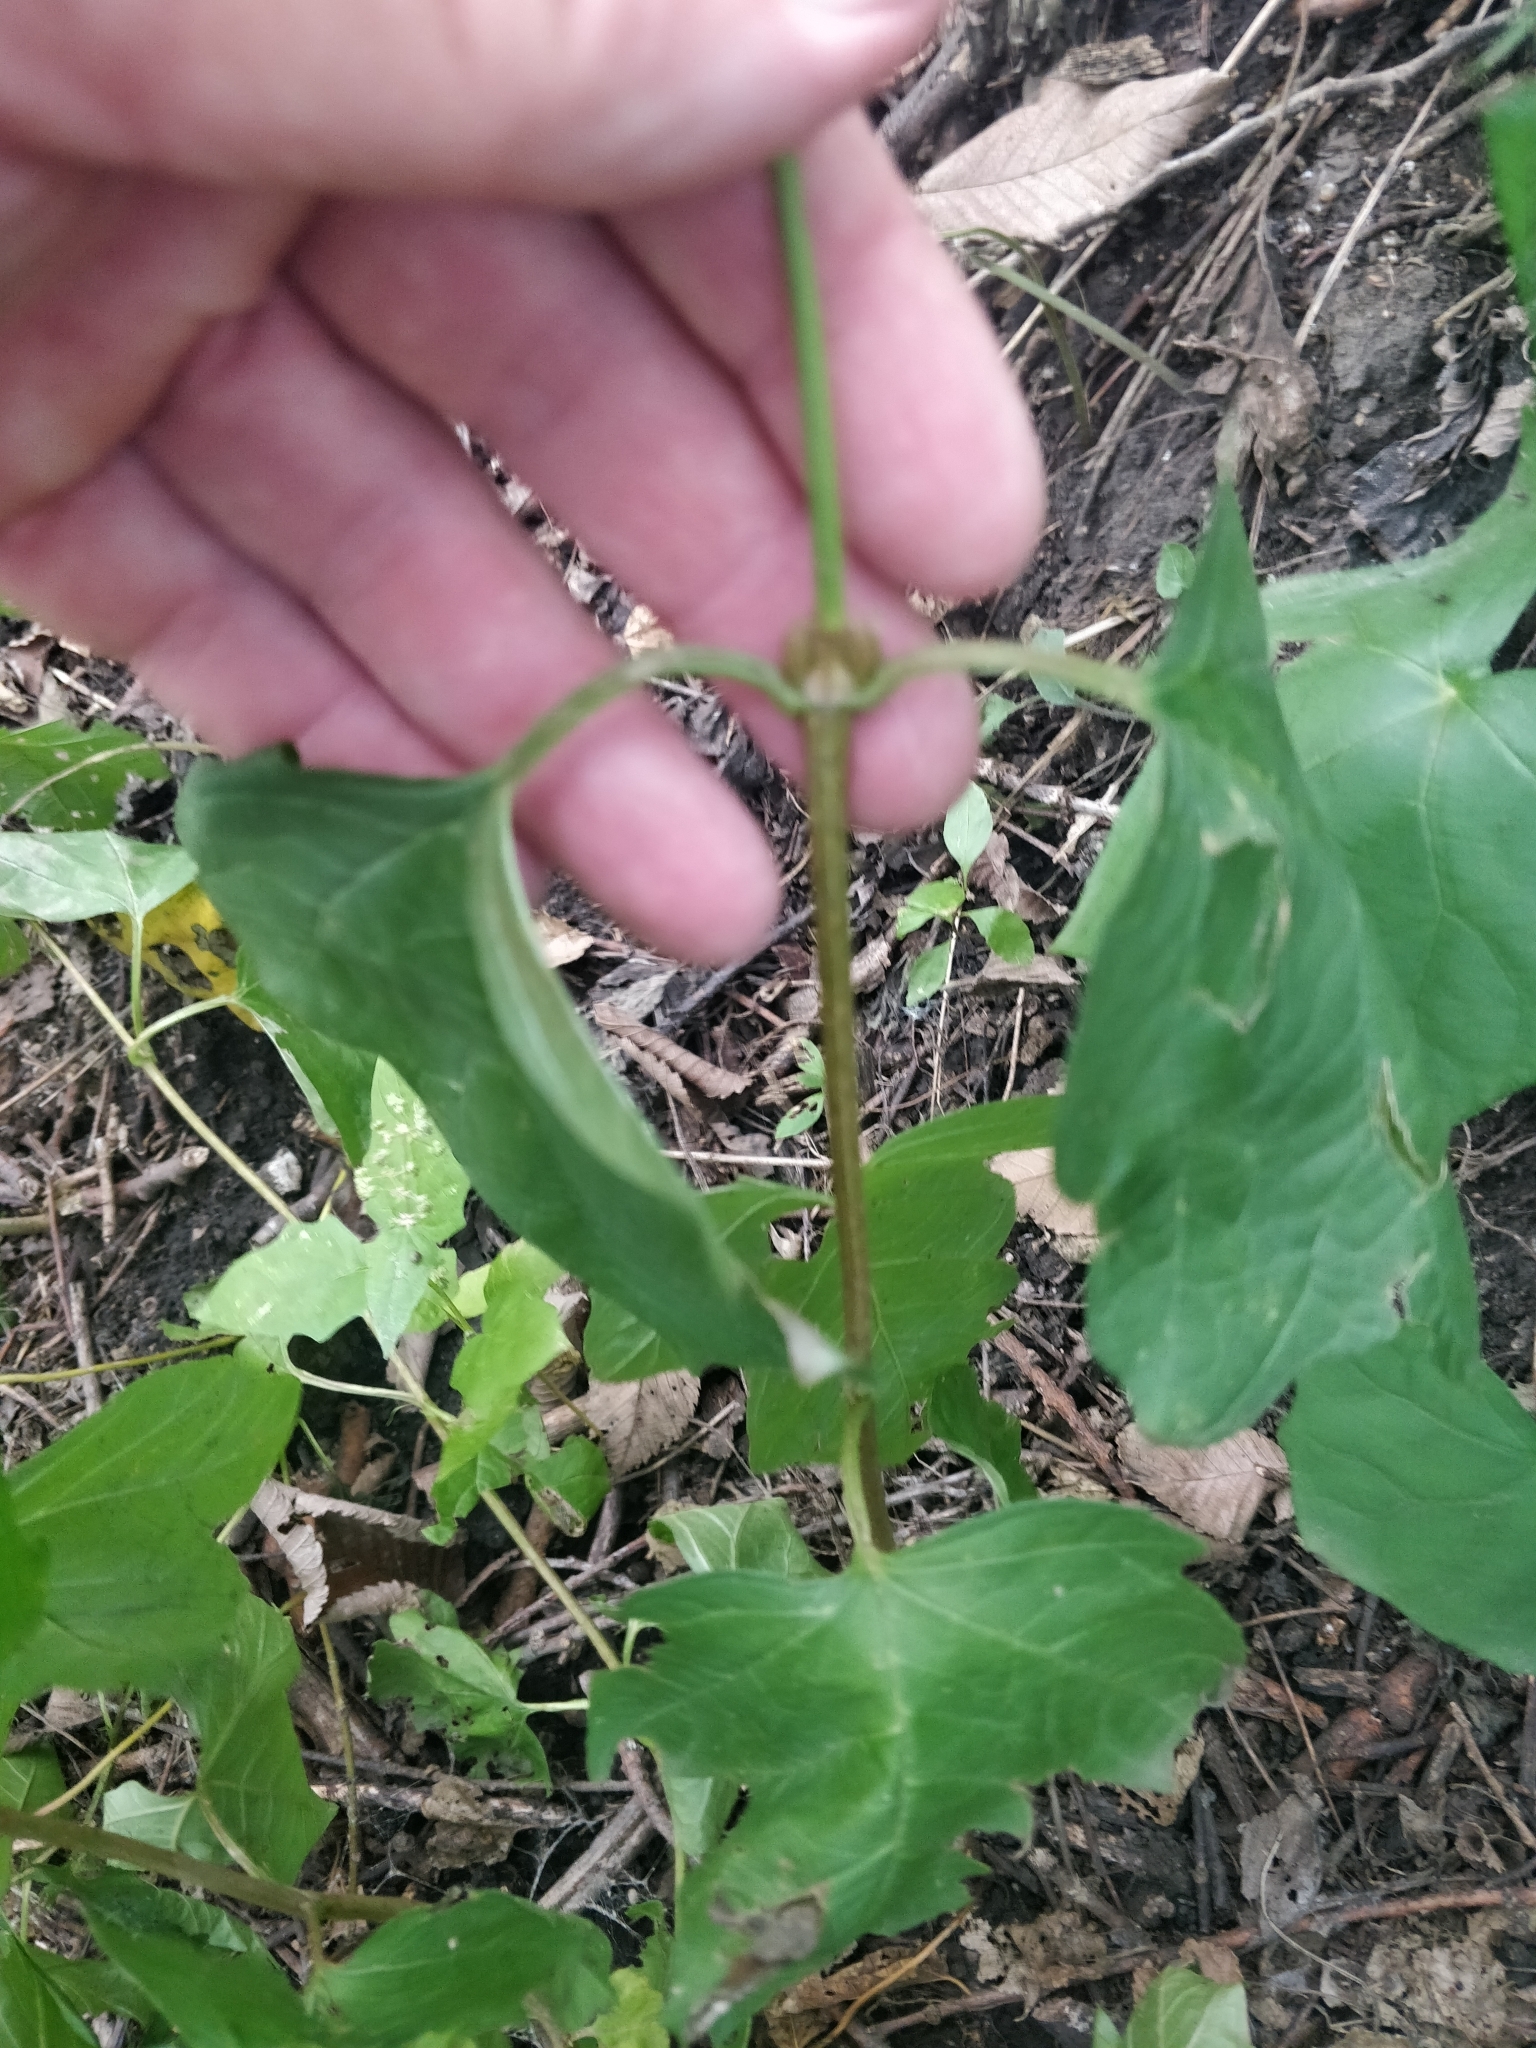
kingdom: Plantae
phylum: Tracheophyta
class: Magnoliopsida
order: Dipsacales
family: Viburnaceae
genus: Viburnum
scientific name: Viburnum opulus
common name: Guelder-rose
